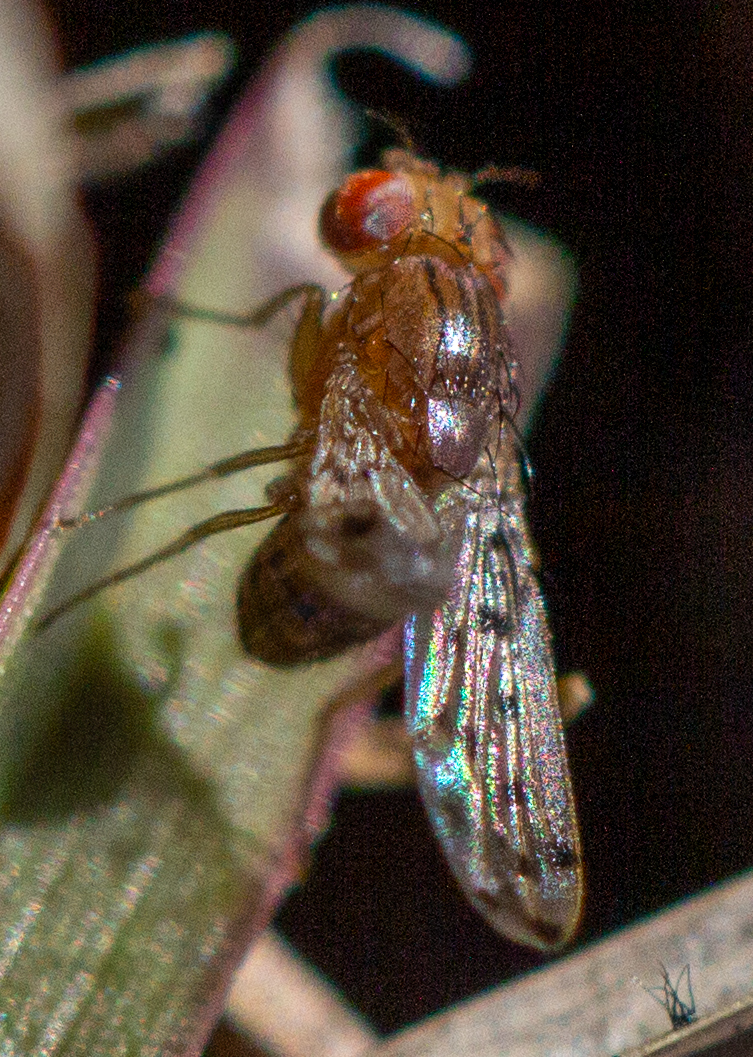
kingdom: Animalia
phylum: Arthropoda
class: Insecta
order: Diptera
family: Drosophilidae
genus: Drosophila
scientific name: Drosophila guttifera
